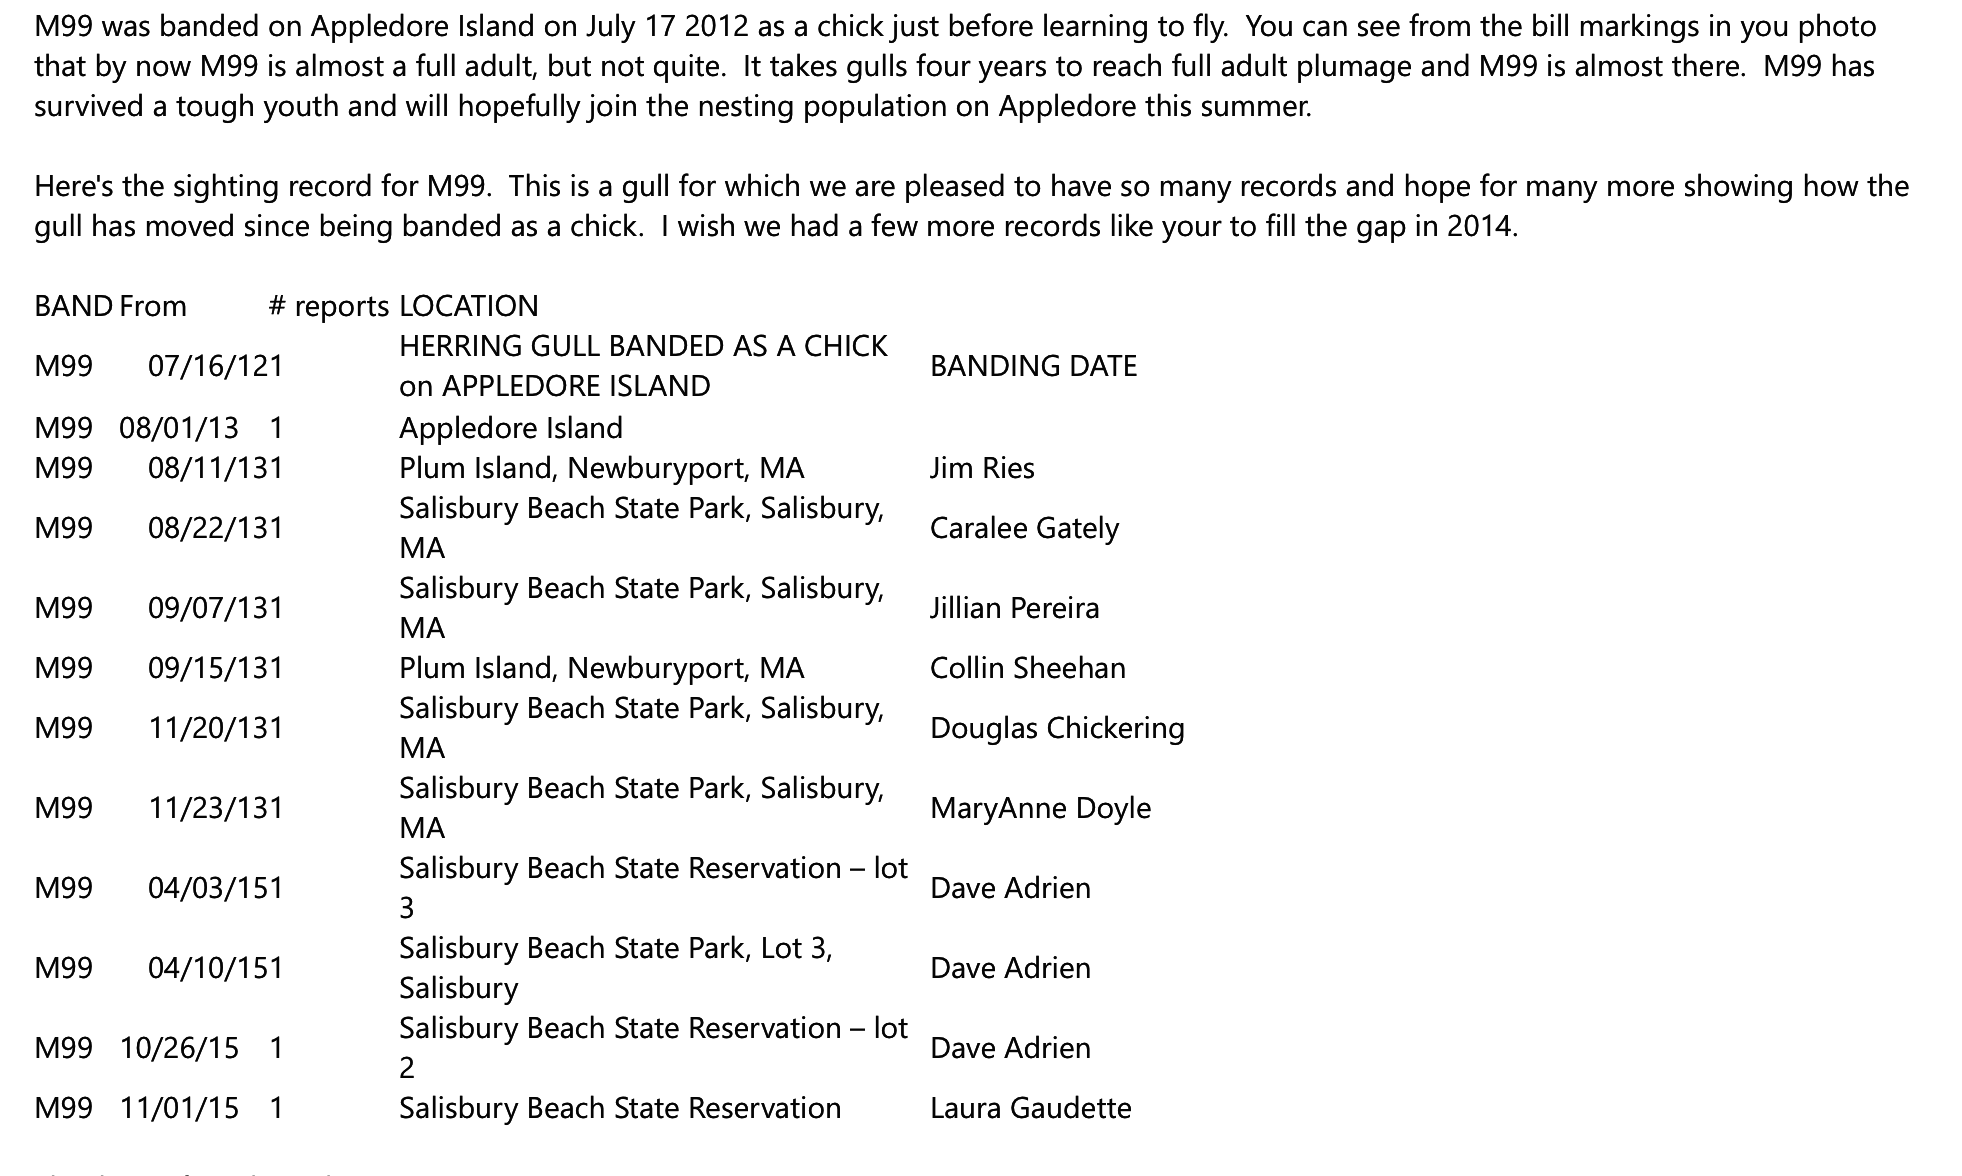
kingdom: Animalia
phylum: Chordata
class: Aves
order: Charadriiformes
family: Laridae
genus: Larus
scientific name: Larus argentatus
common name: Herring gull
